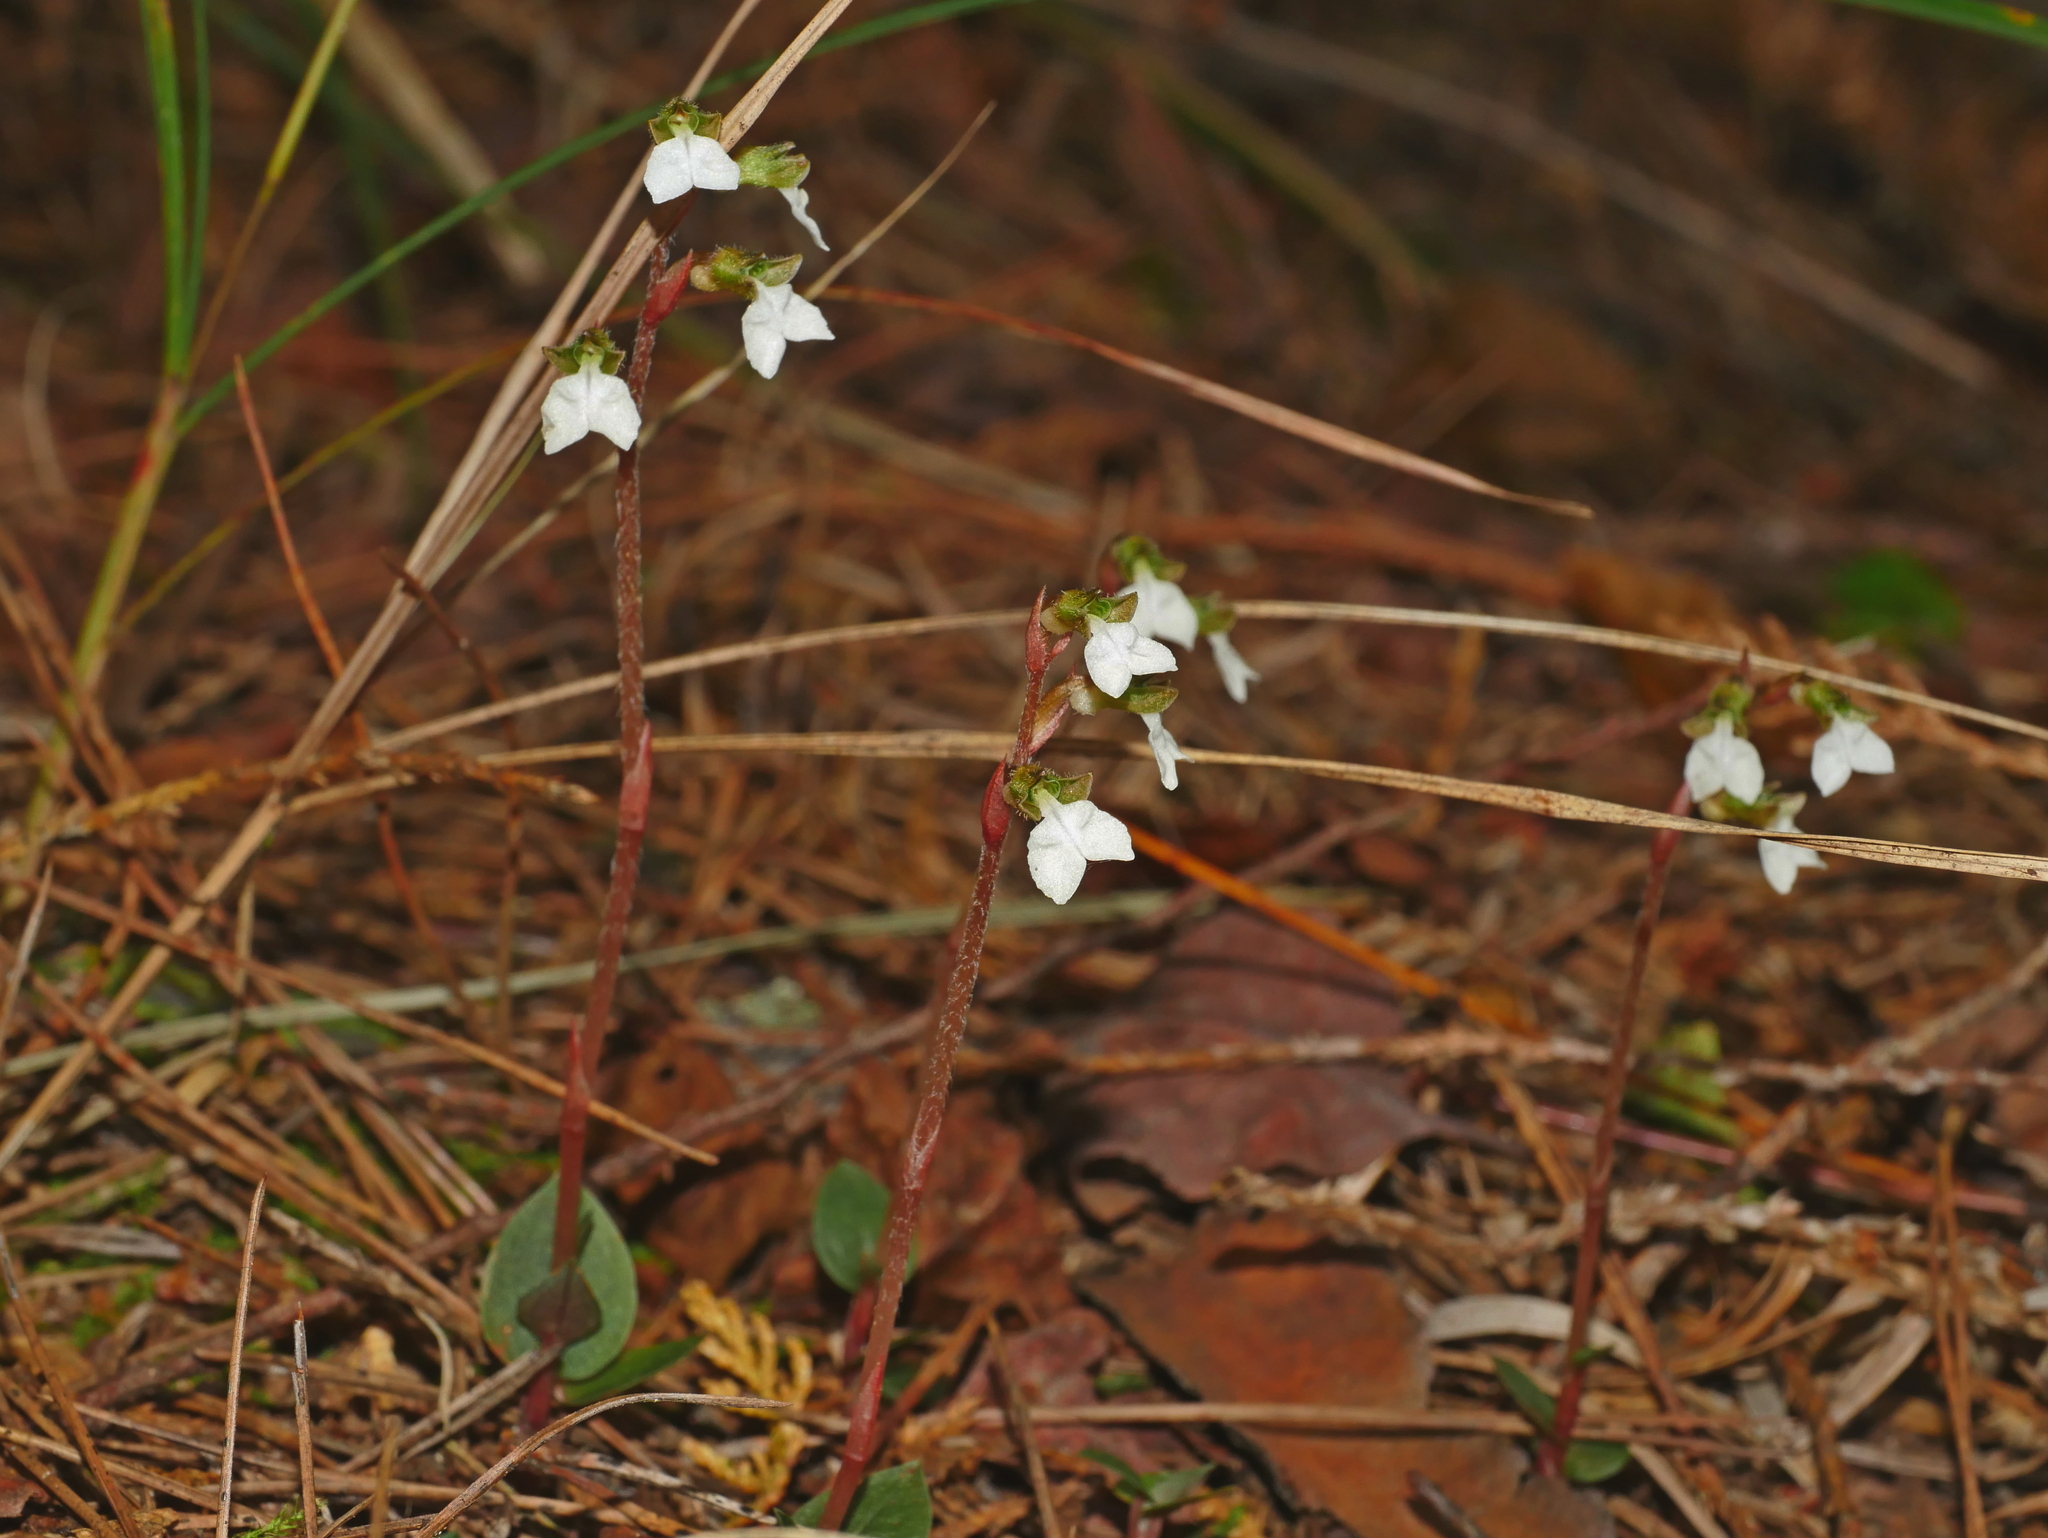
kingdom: Plantae
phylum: Tracheophyta
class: Liliopsida
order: Asparagales
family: Orchidaceae
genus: Odontochilus
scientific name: Odontochilus yakushimensis
